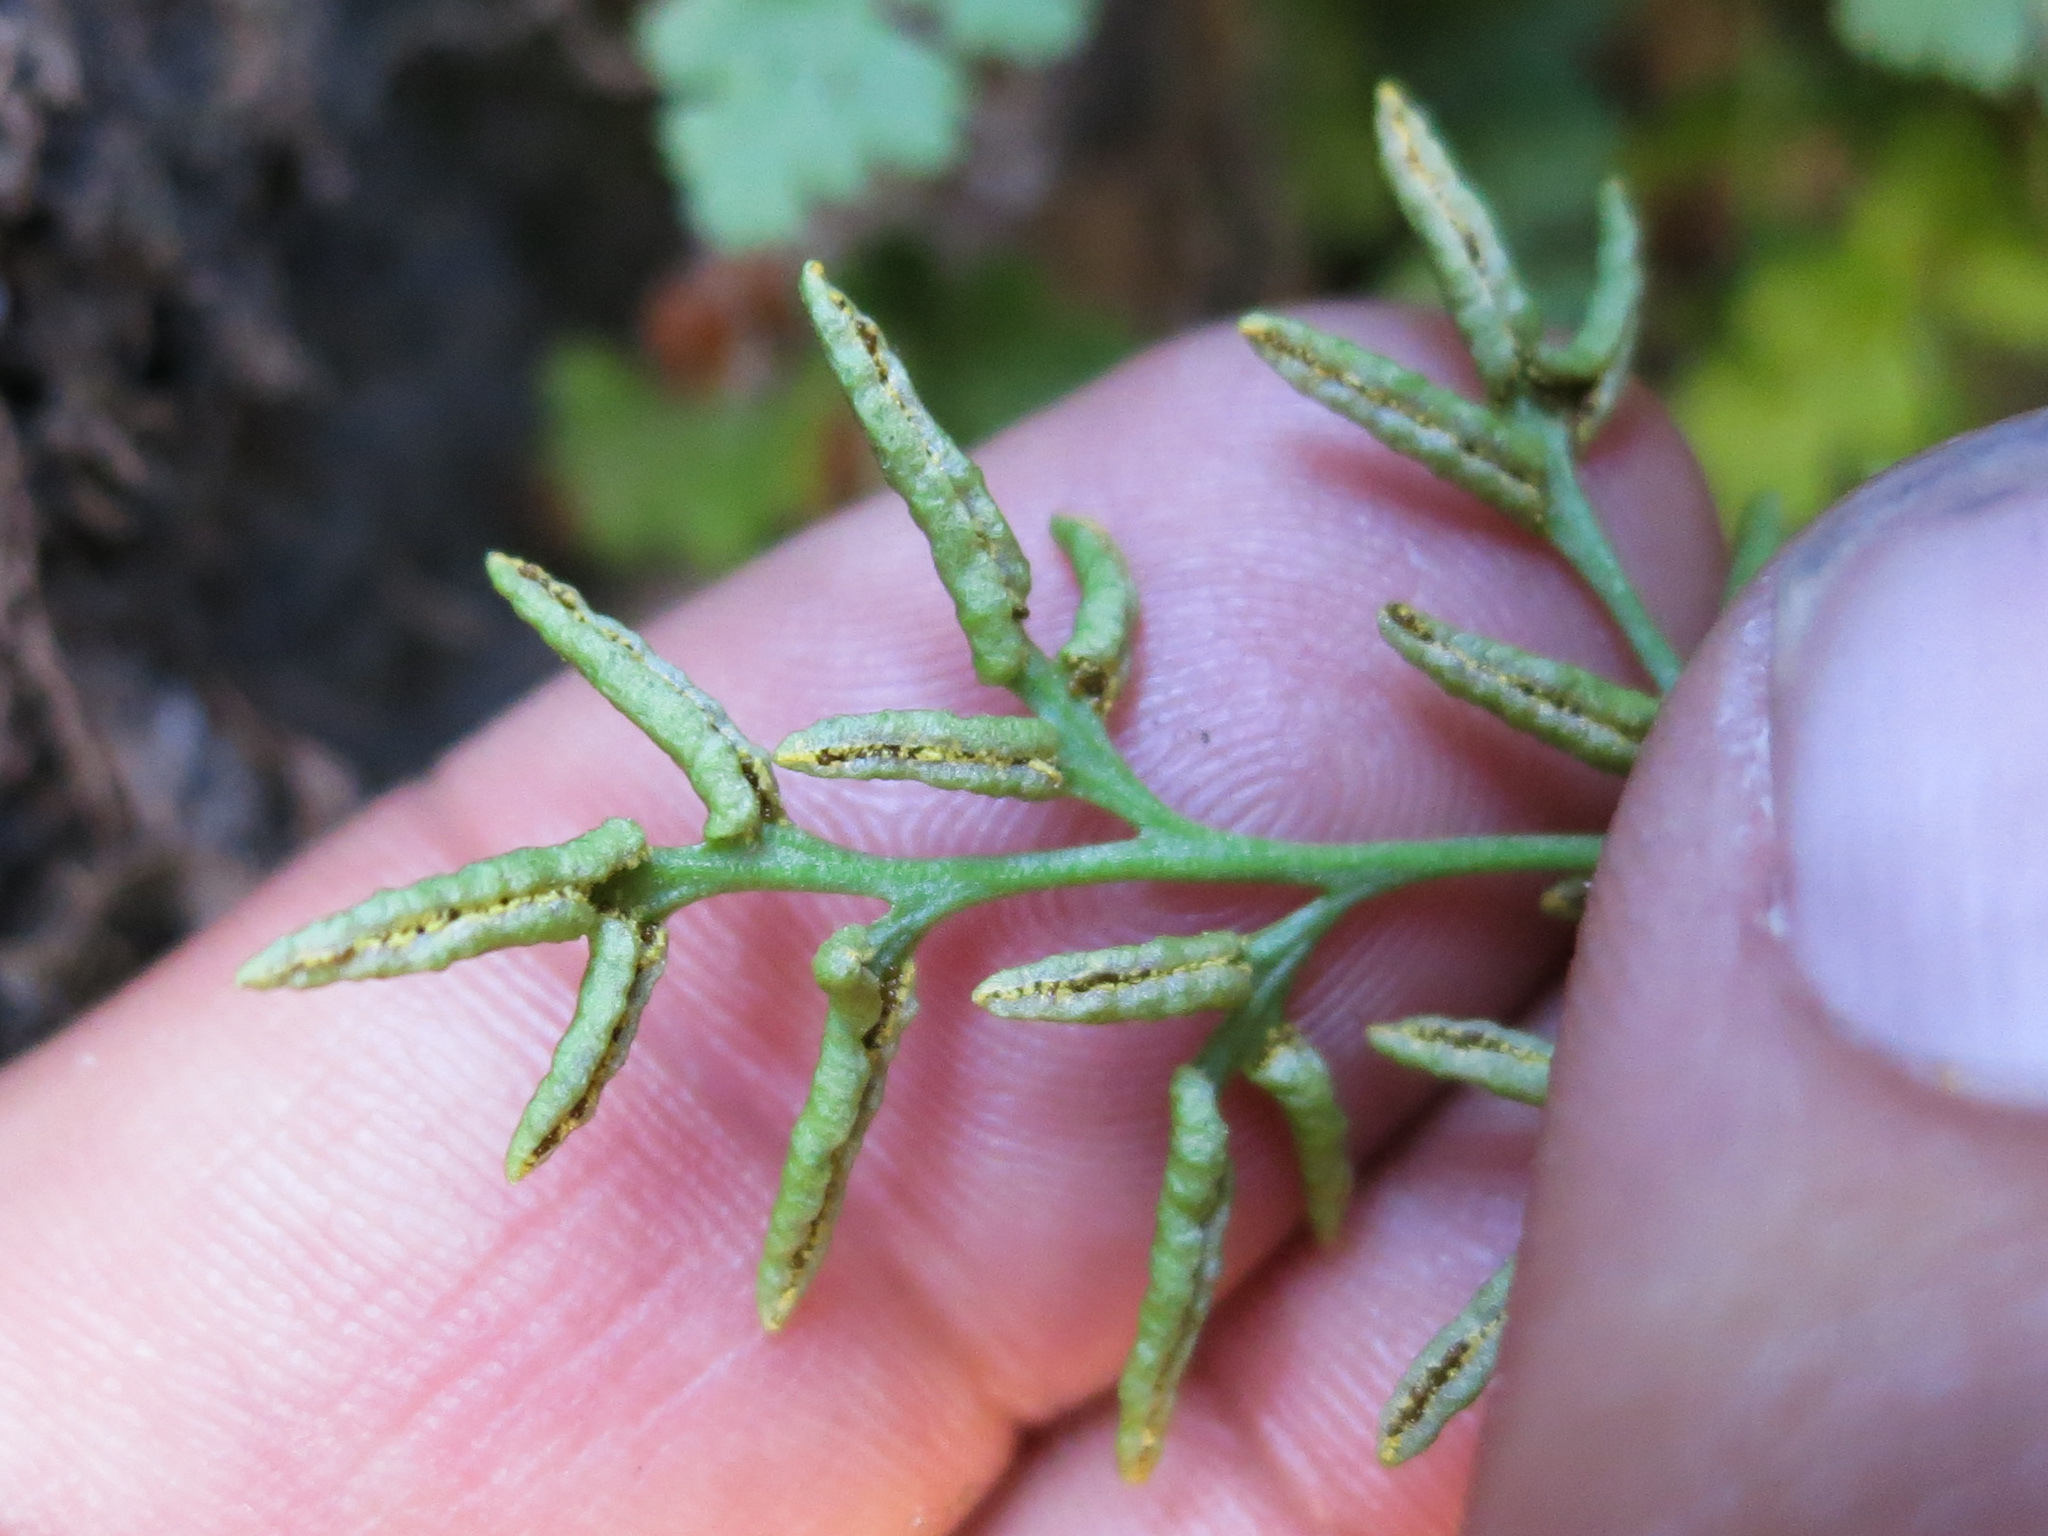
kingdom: Plantae
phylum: Tracheophyta
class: Polypodiopsida
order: Polypodiales
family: Pteridaceae
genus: Cryptogramma
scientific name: Cryptogramma acrostichoides
